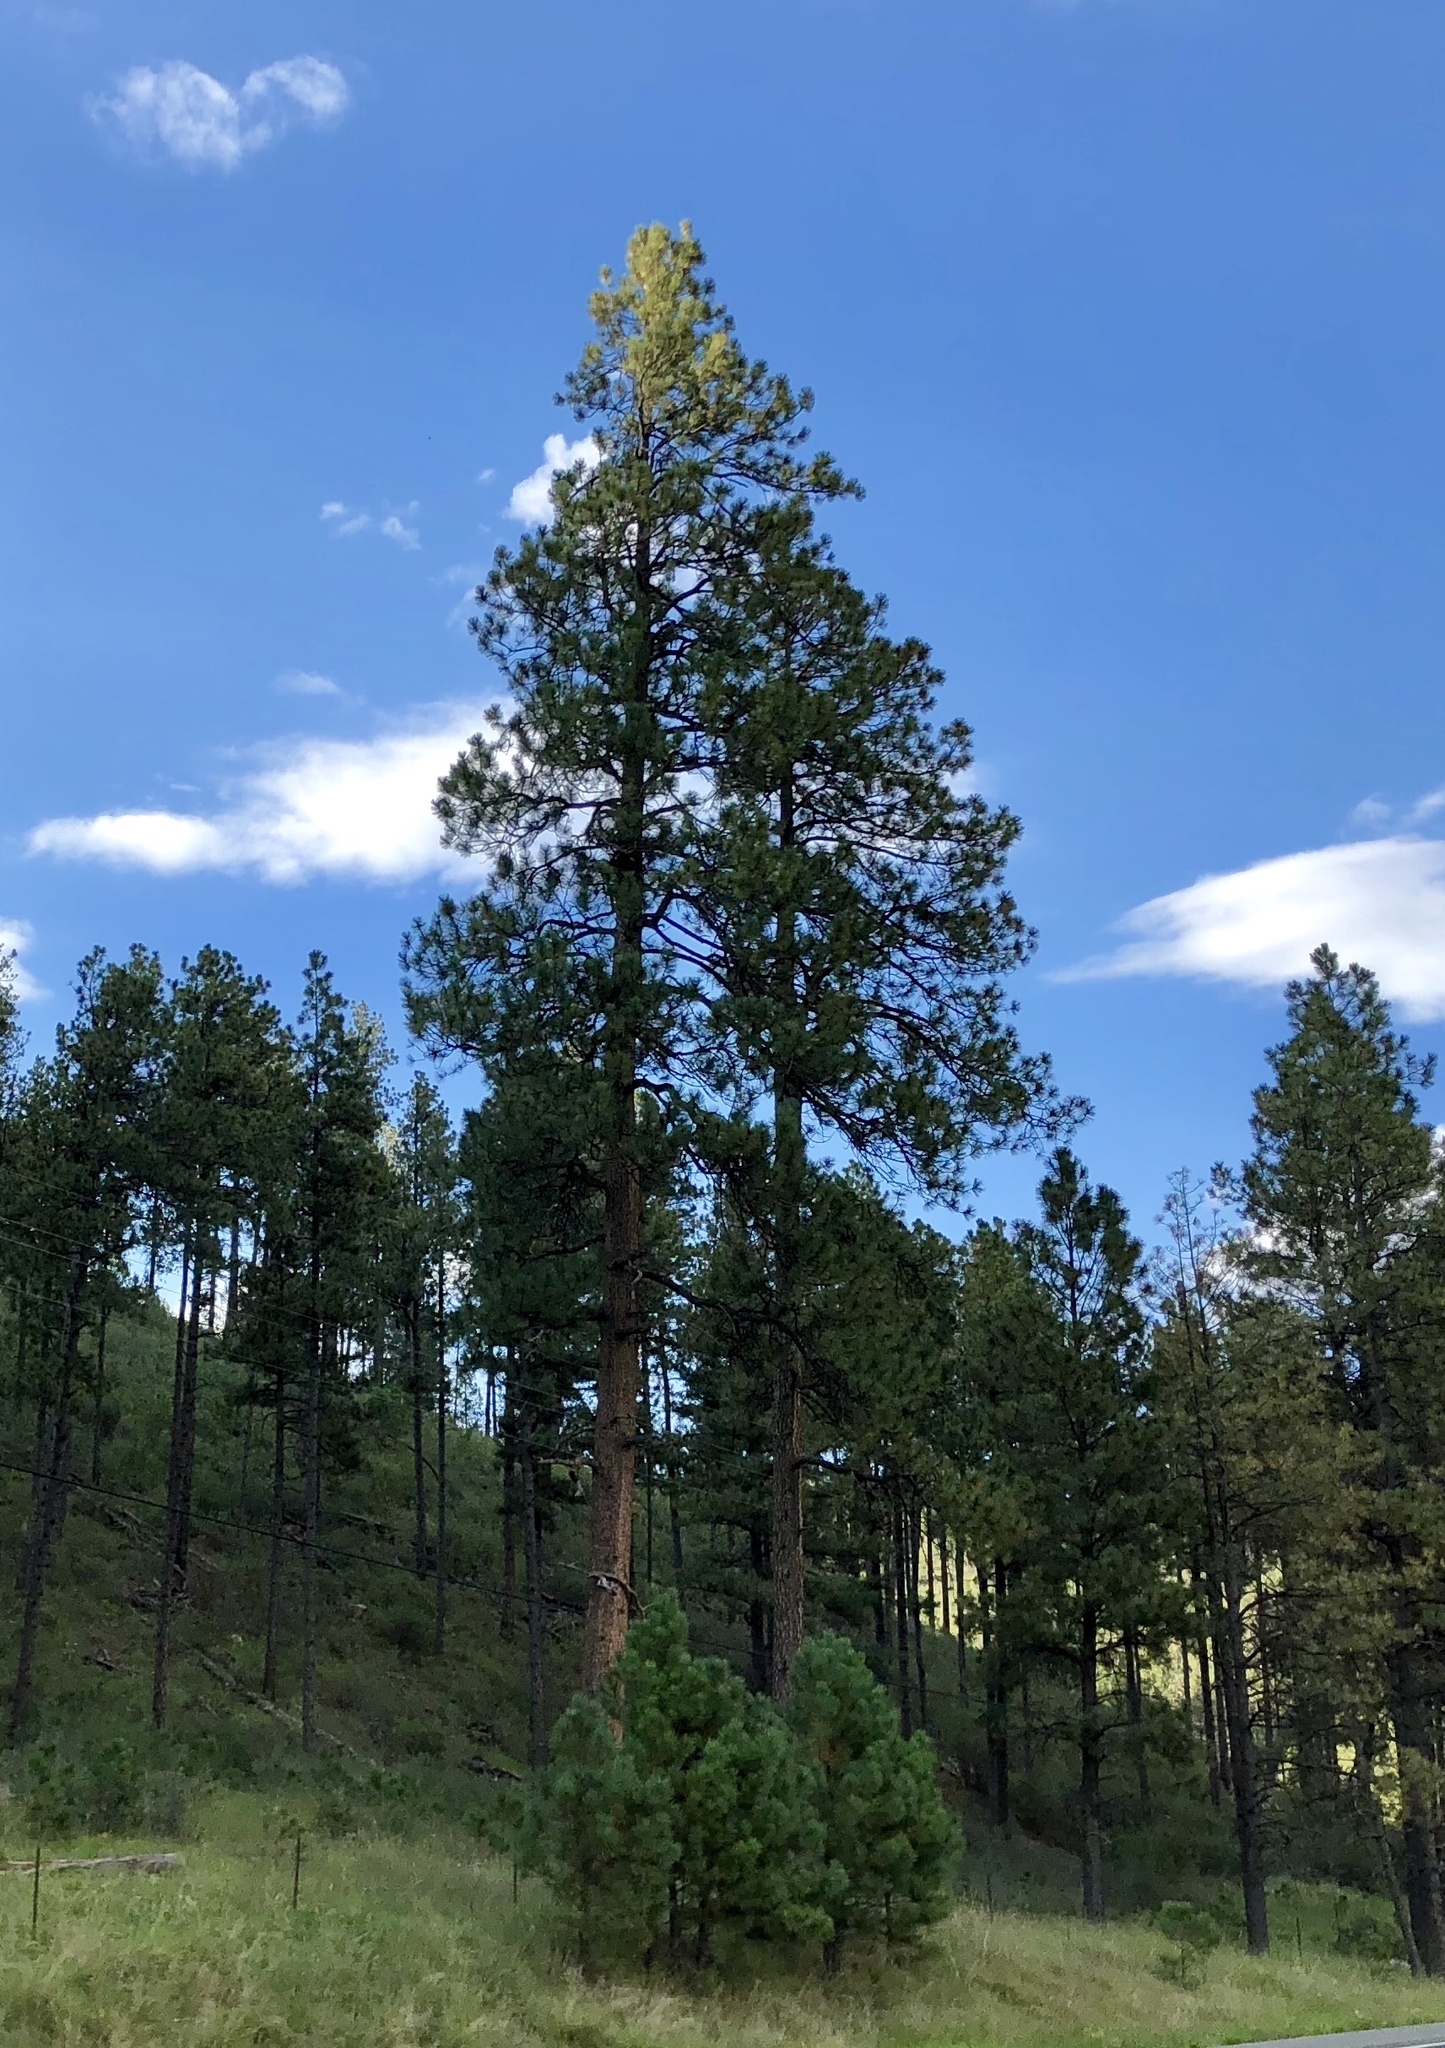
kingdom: Plantae
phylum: Tracheophyta
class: Pinopsida
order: Pinales
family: Pinaceae
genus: Pinus
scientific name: Pinus ponderosa
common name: Western yellow-pine
